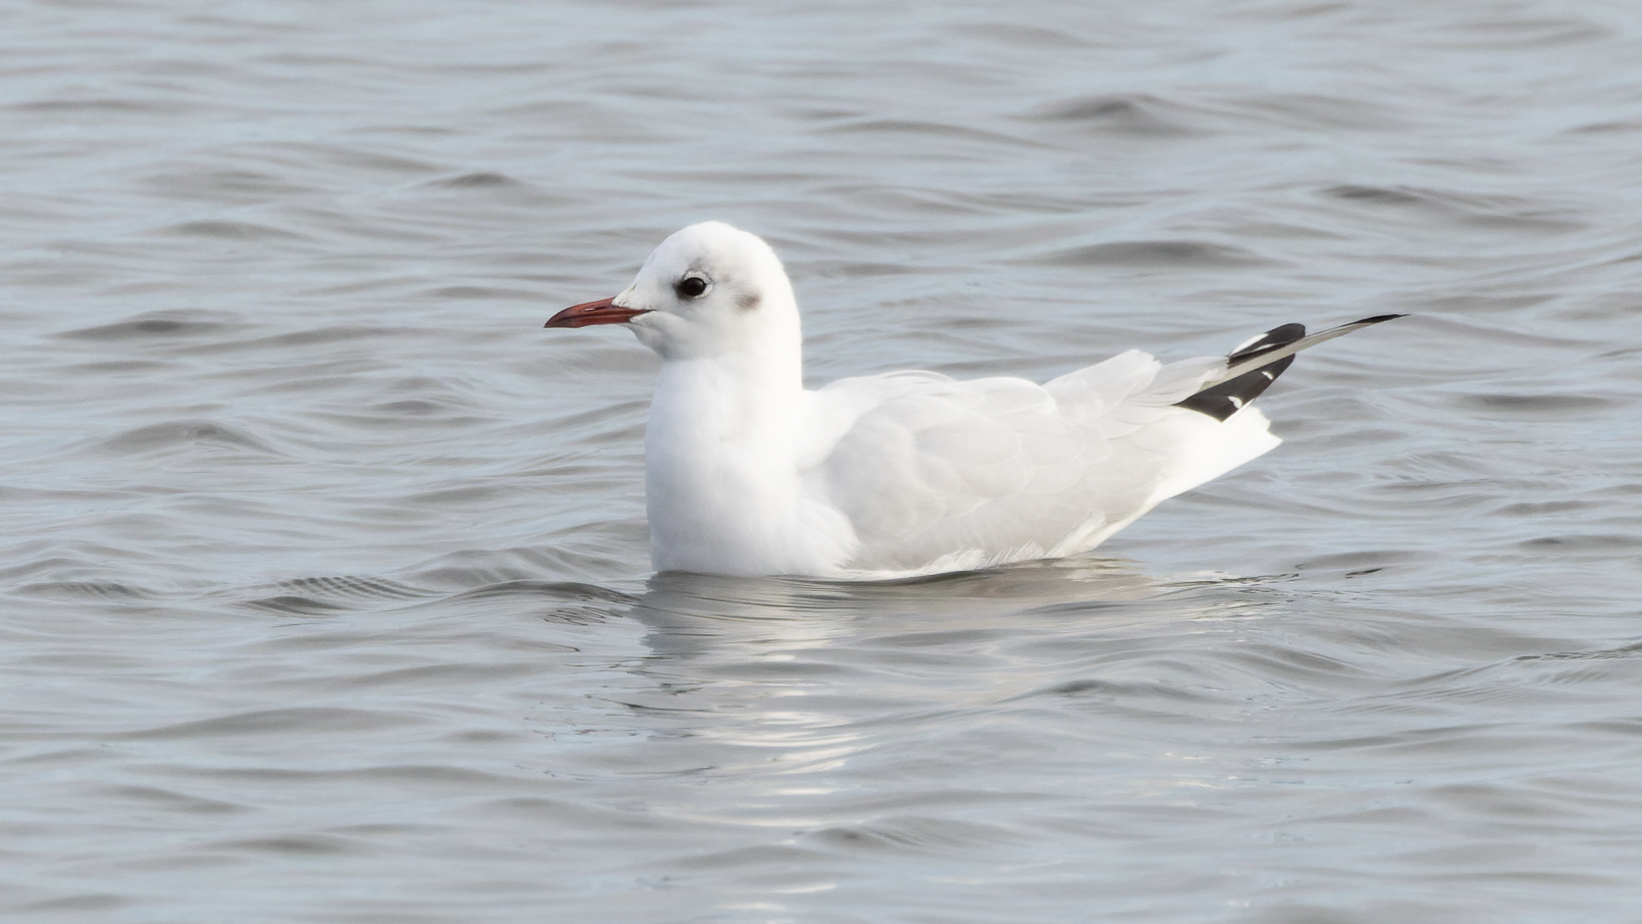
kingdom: Animalia
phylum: Chordata
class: Aves
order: Charadriiformes
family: Laridae
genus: Chroicocephalus
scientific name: Chroicocephalus ridibundus
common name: Black-headed gull
